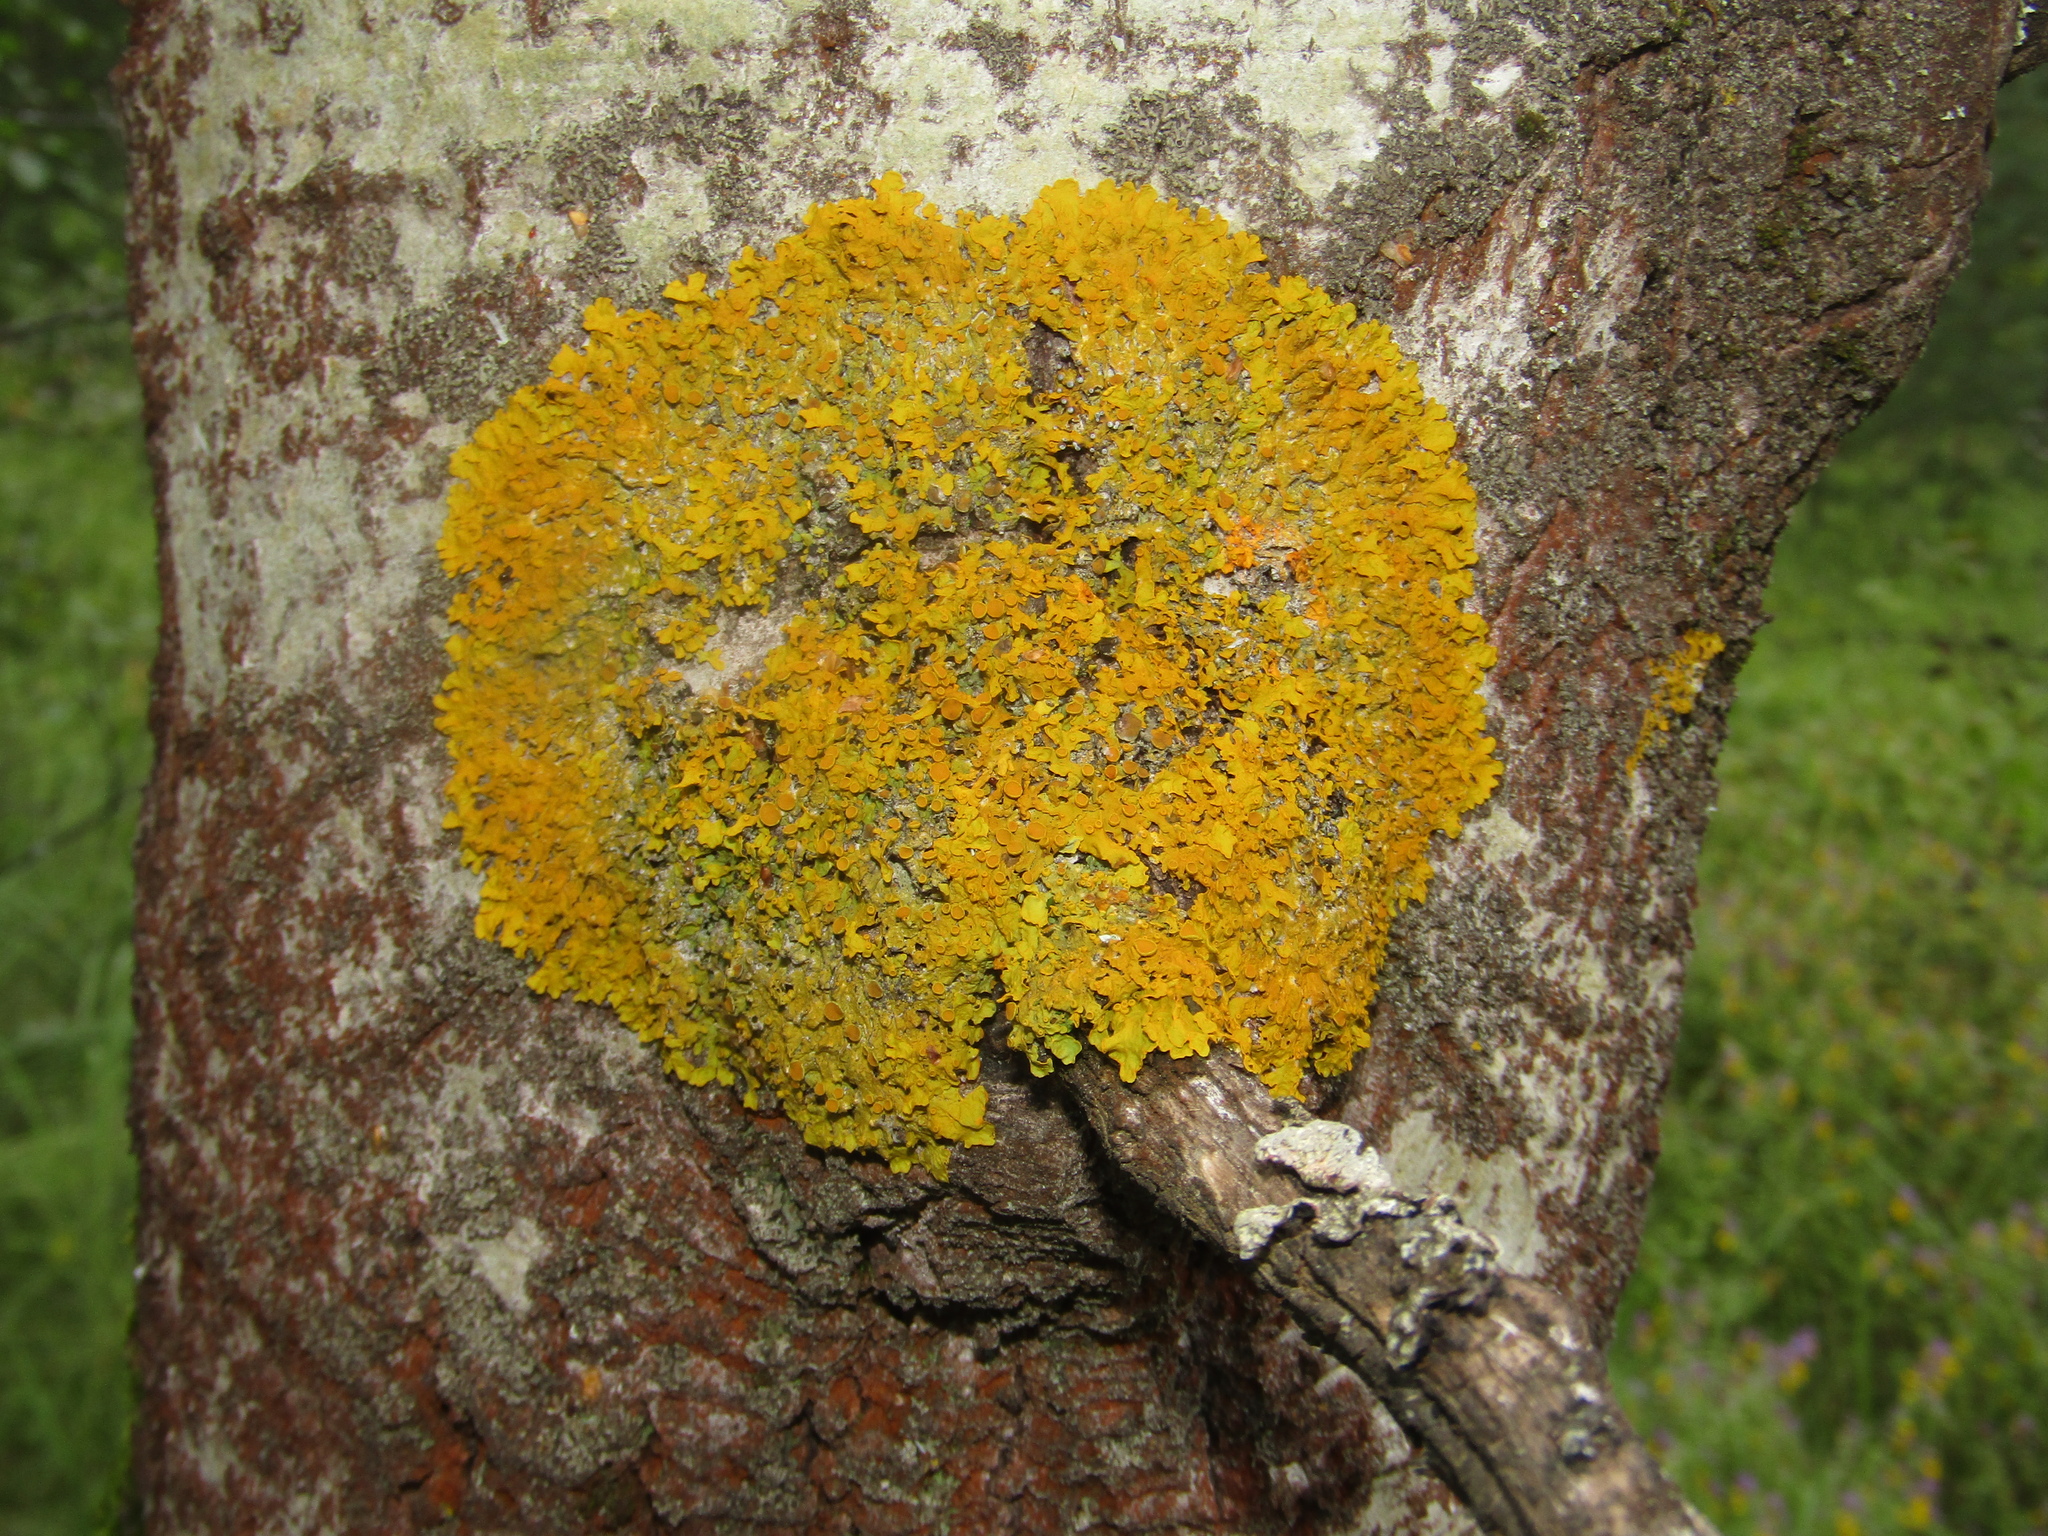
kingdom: Fungi
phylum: Ascomycota
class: Lecanoromycetes
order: Teloschistales
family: Teloschistaceae
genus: Xanthoria
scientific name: Xanthoria parietina
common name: Common orange lichen
